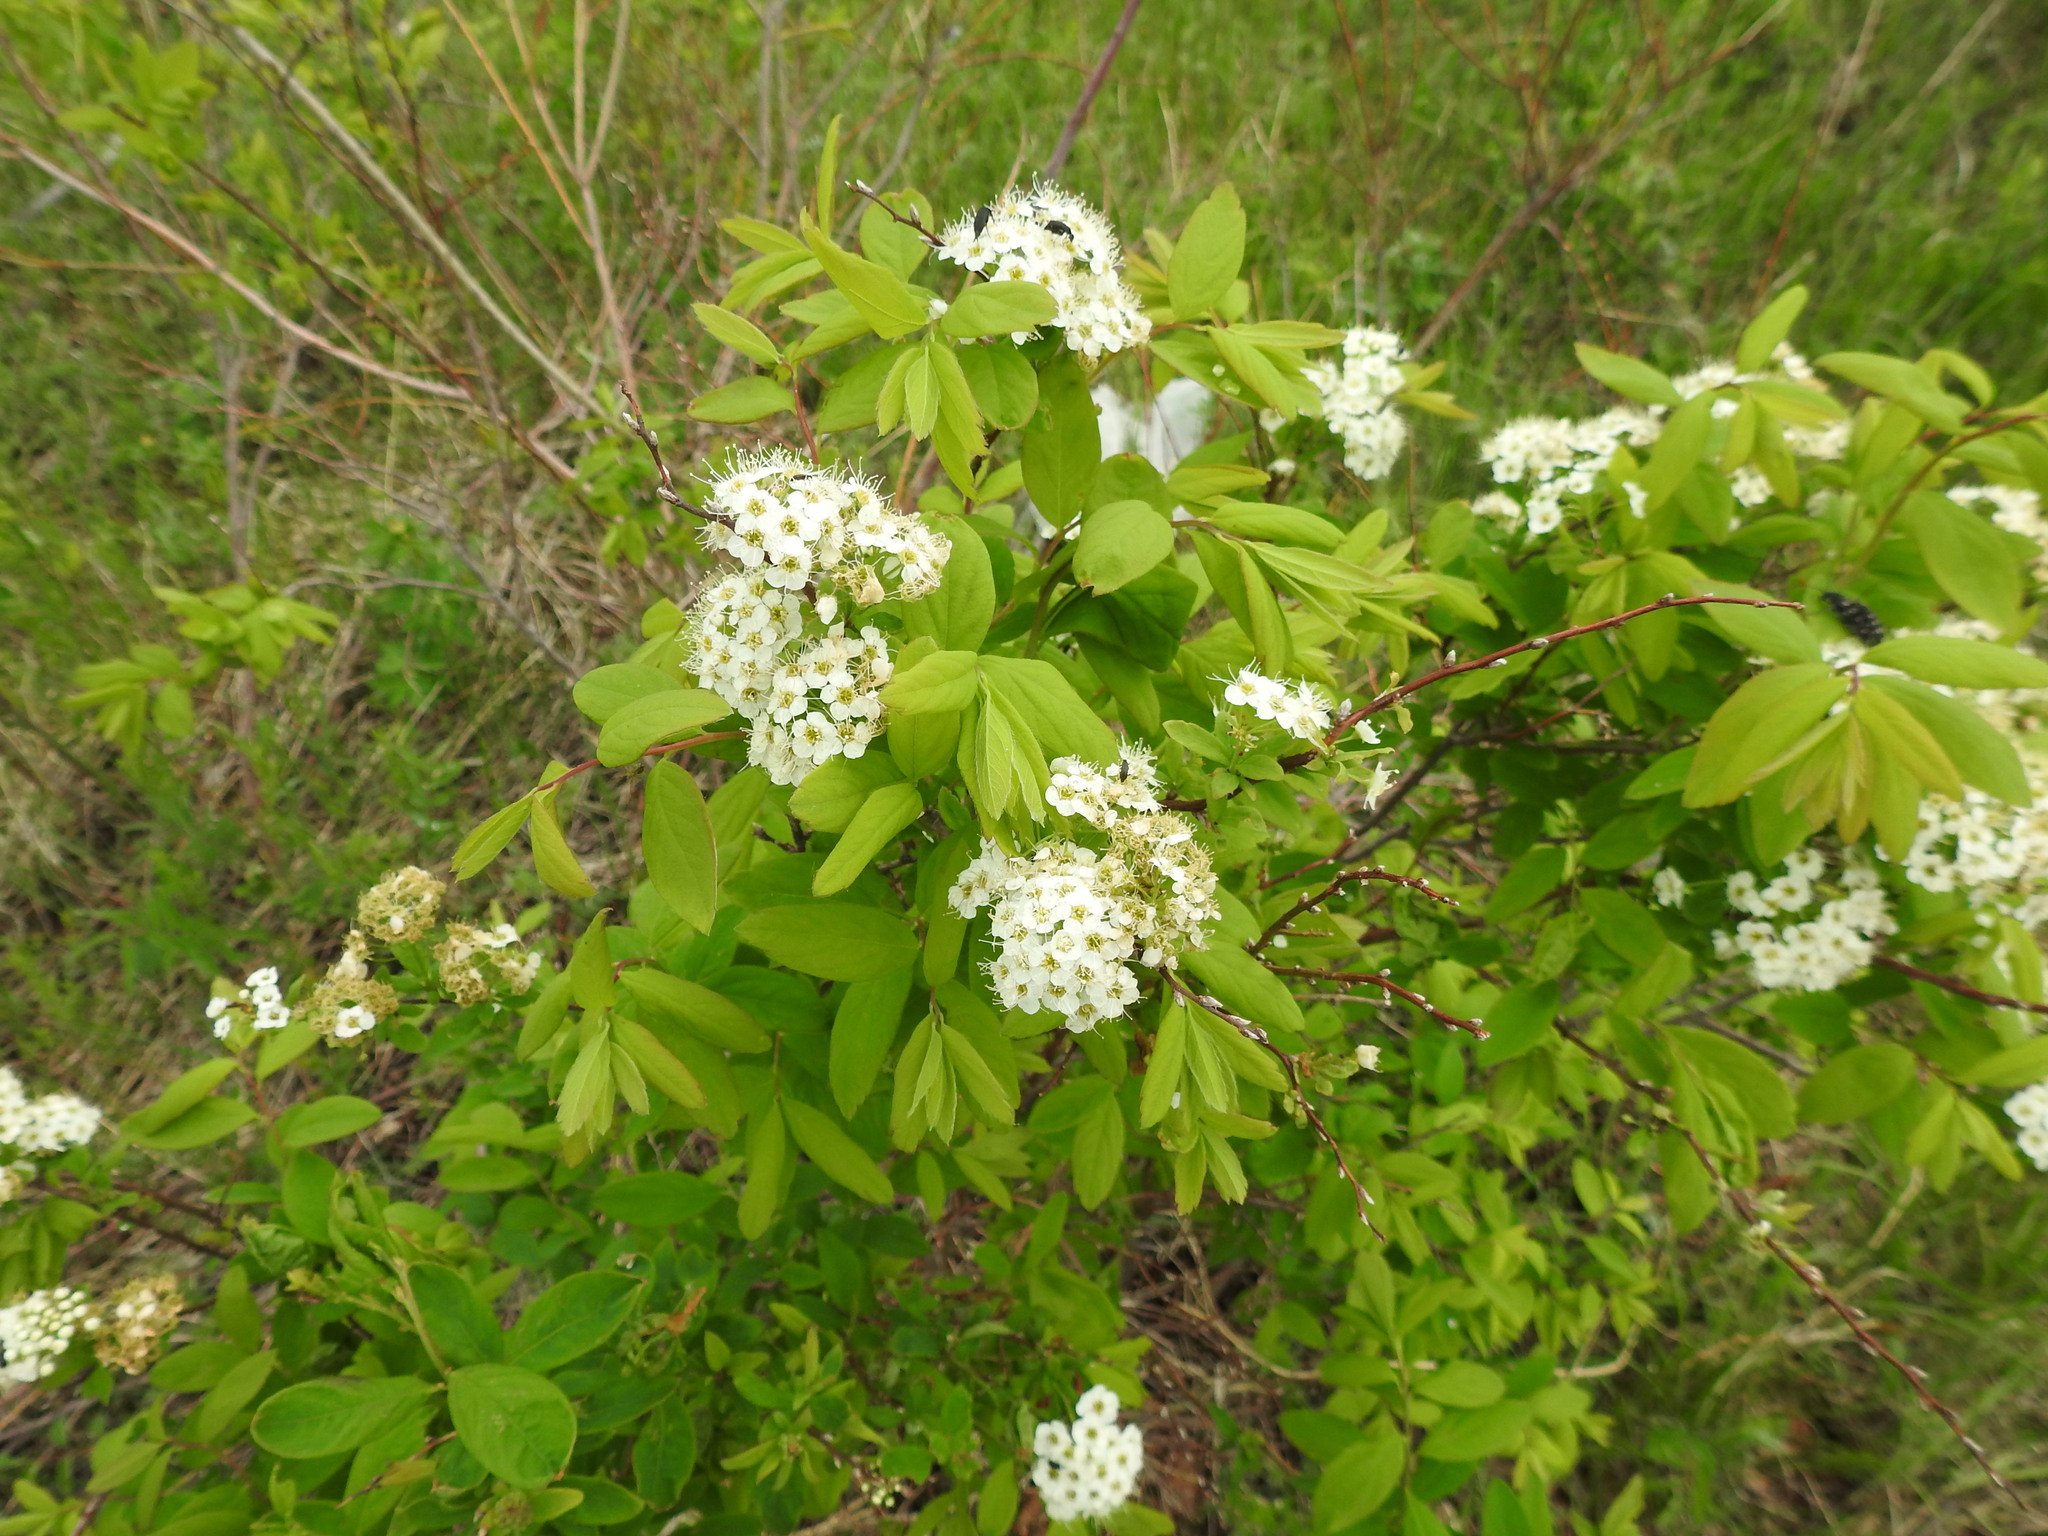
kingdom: Plantae
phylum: Tracheophyta
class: Magnoliopsida
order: Rosales
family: Rosaceae
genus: Spiraea
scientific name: Spiraea flexuosa
